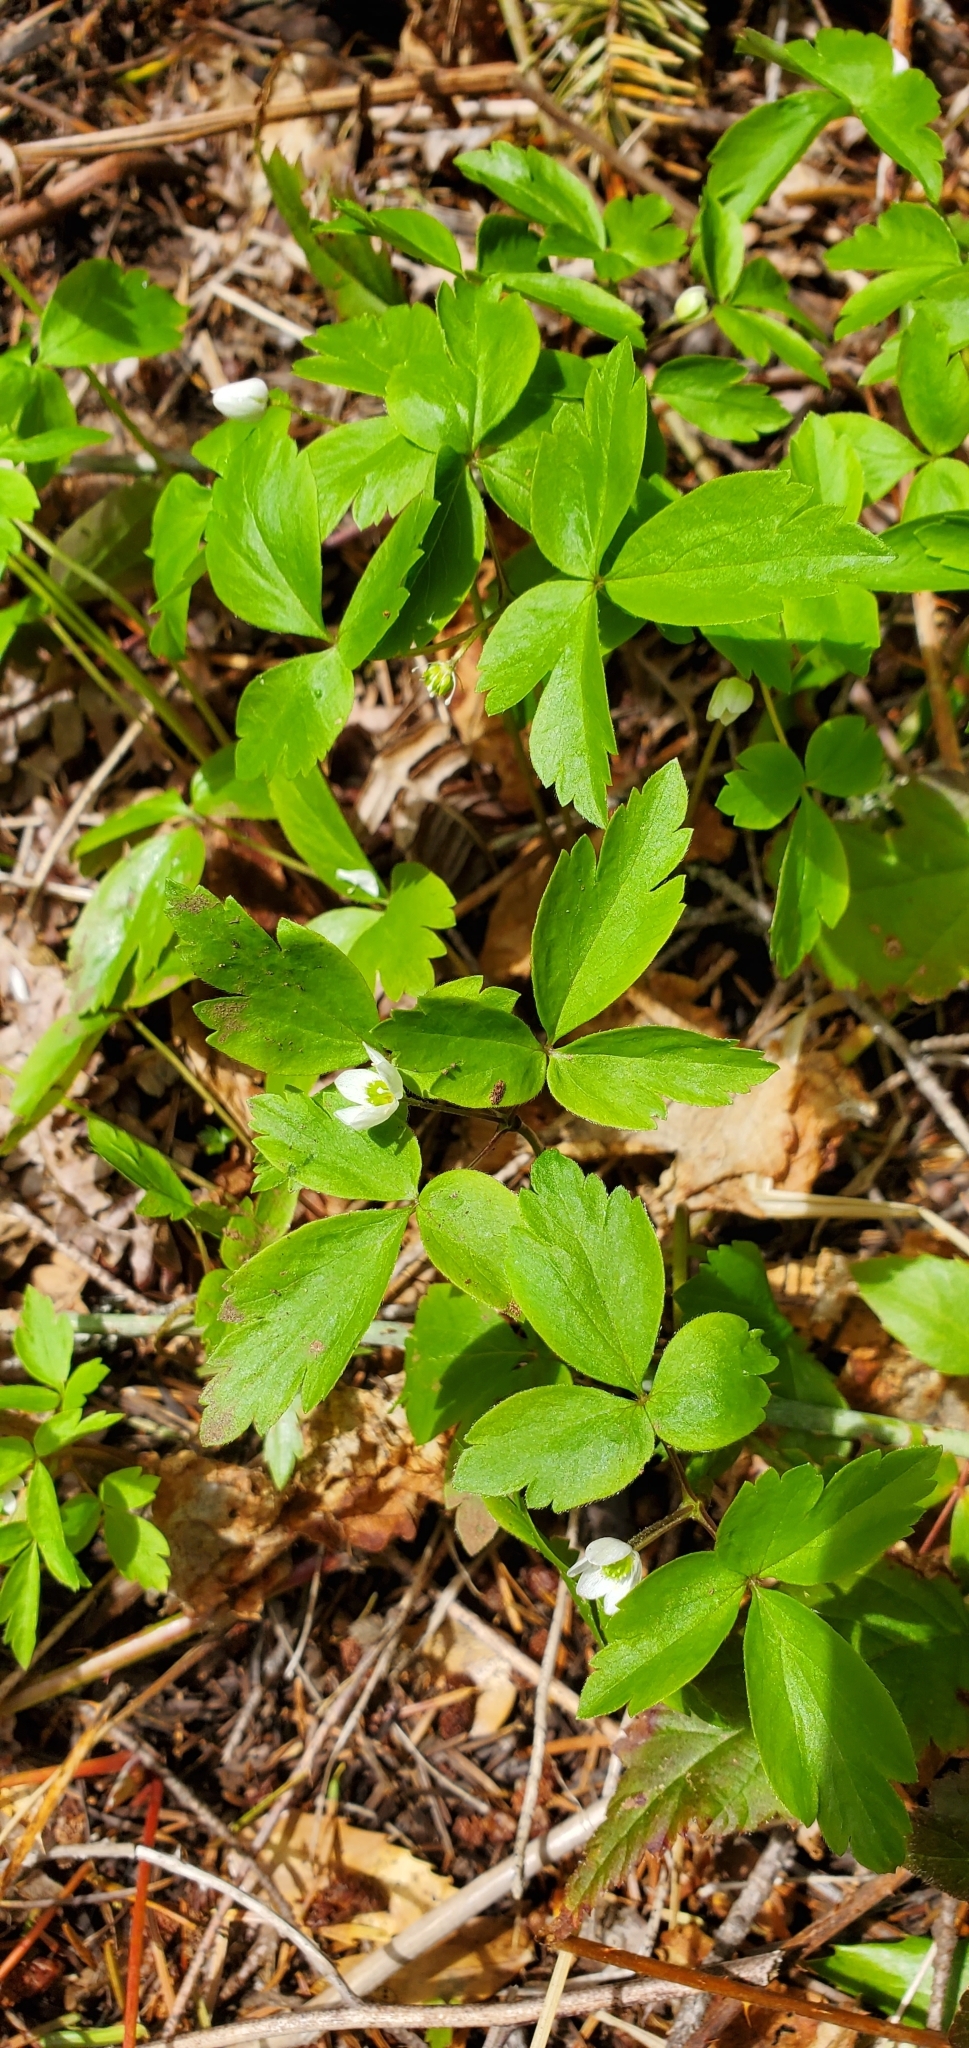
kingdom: Plantae
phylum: Tracheophyta
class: Magnoliopsida
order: Ranunculales
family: Ranunculaceae
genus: Anemone
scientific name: Anemone
